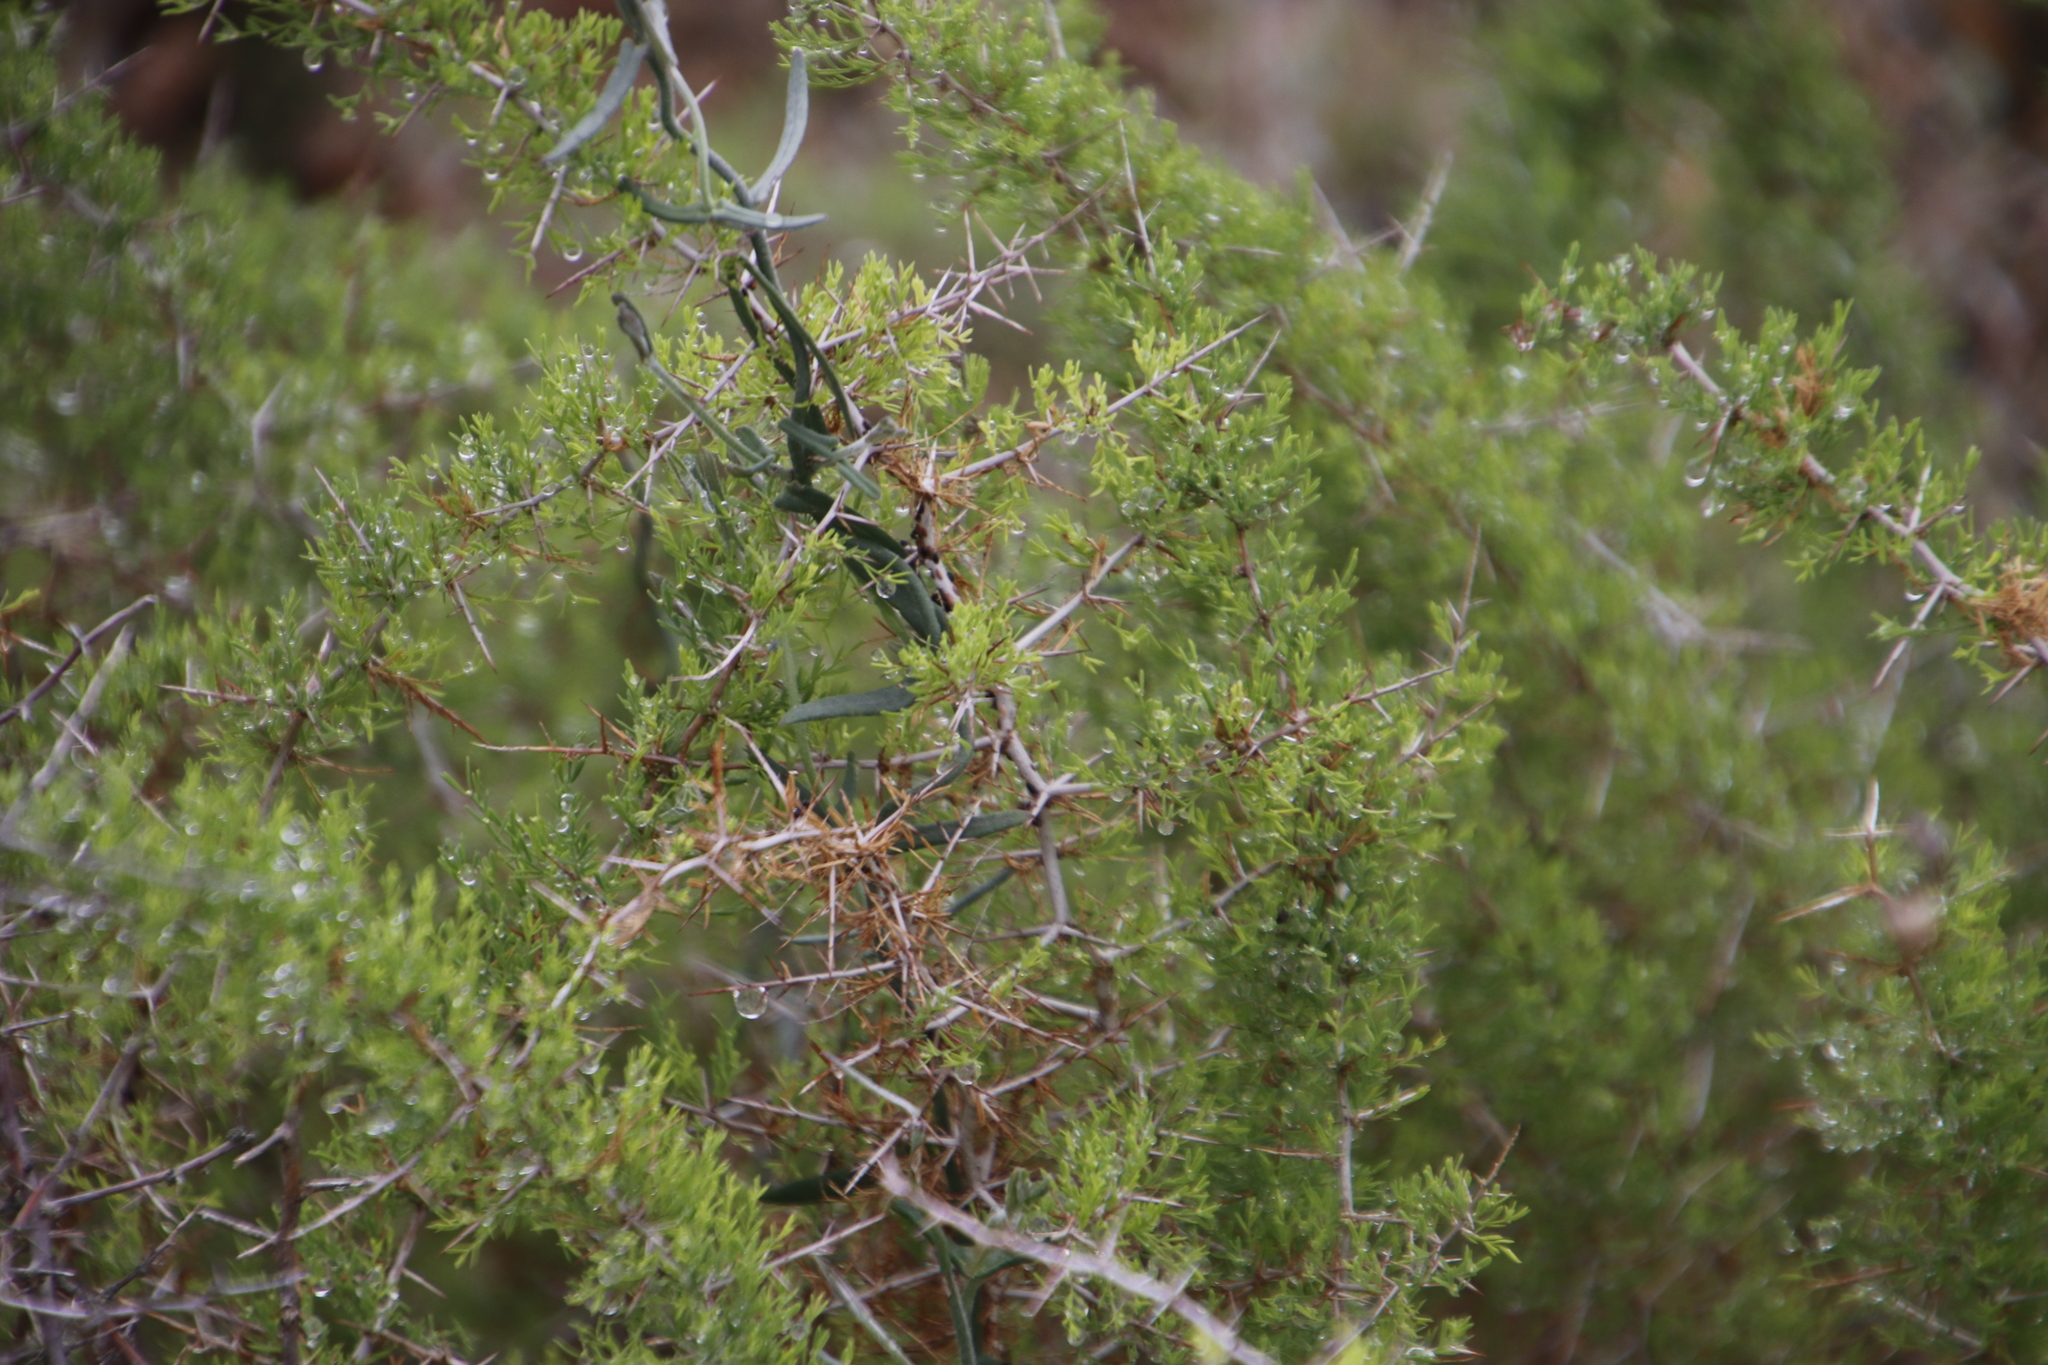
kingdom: Plantae
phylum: Tracheophyta
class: Liliopsida
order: Asparagales
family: Asparagaceae
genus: Asparagus
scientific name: Asparagus suaveolens
